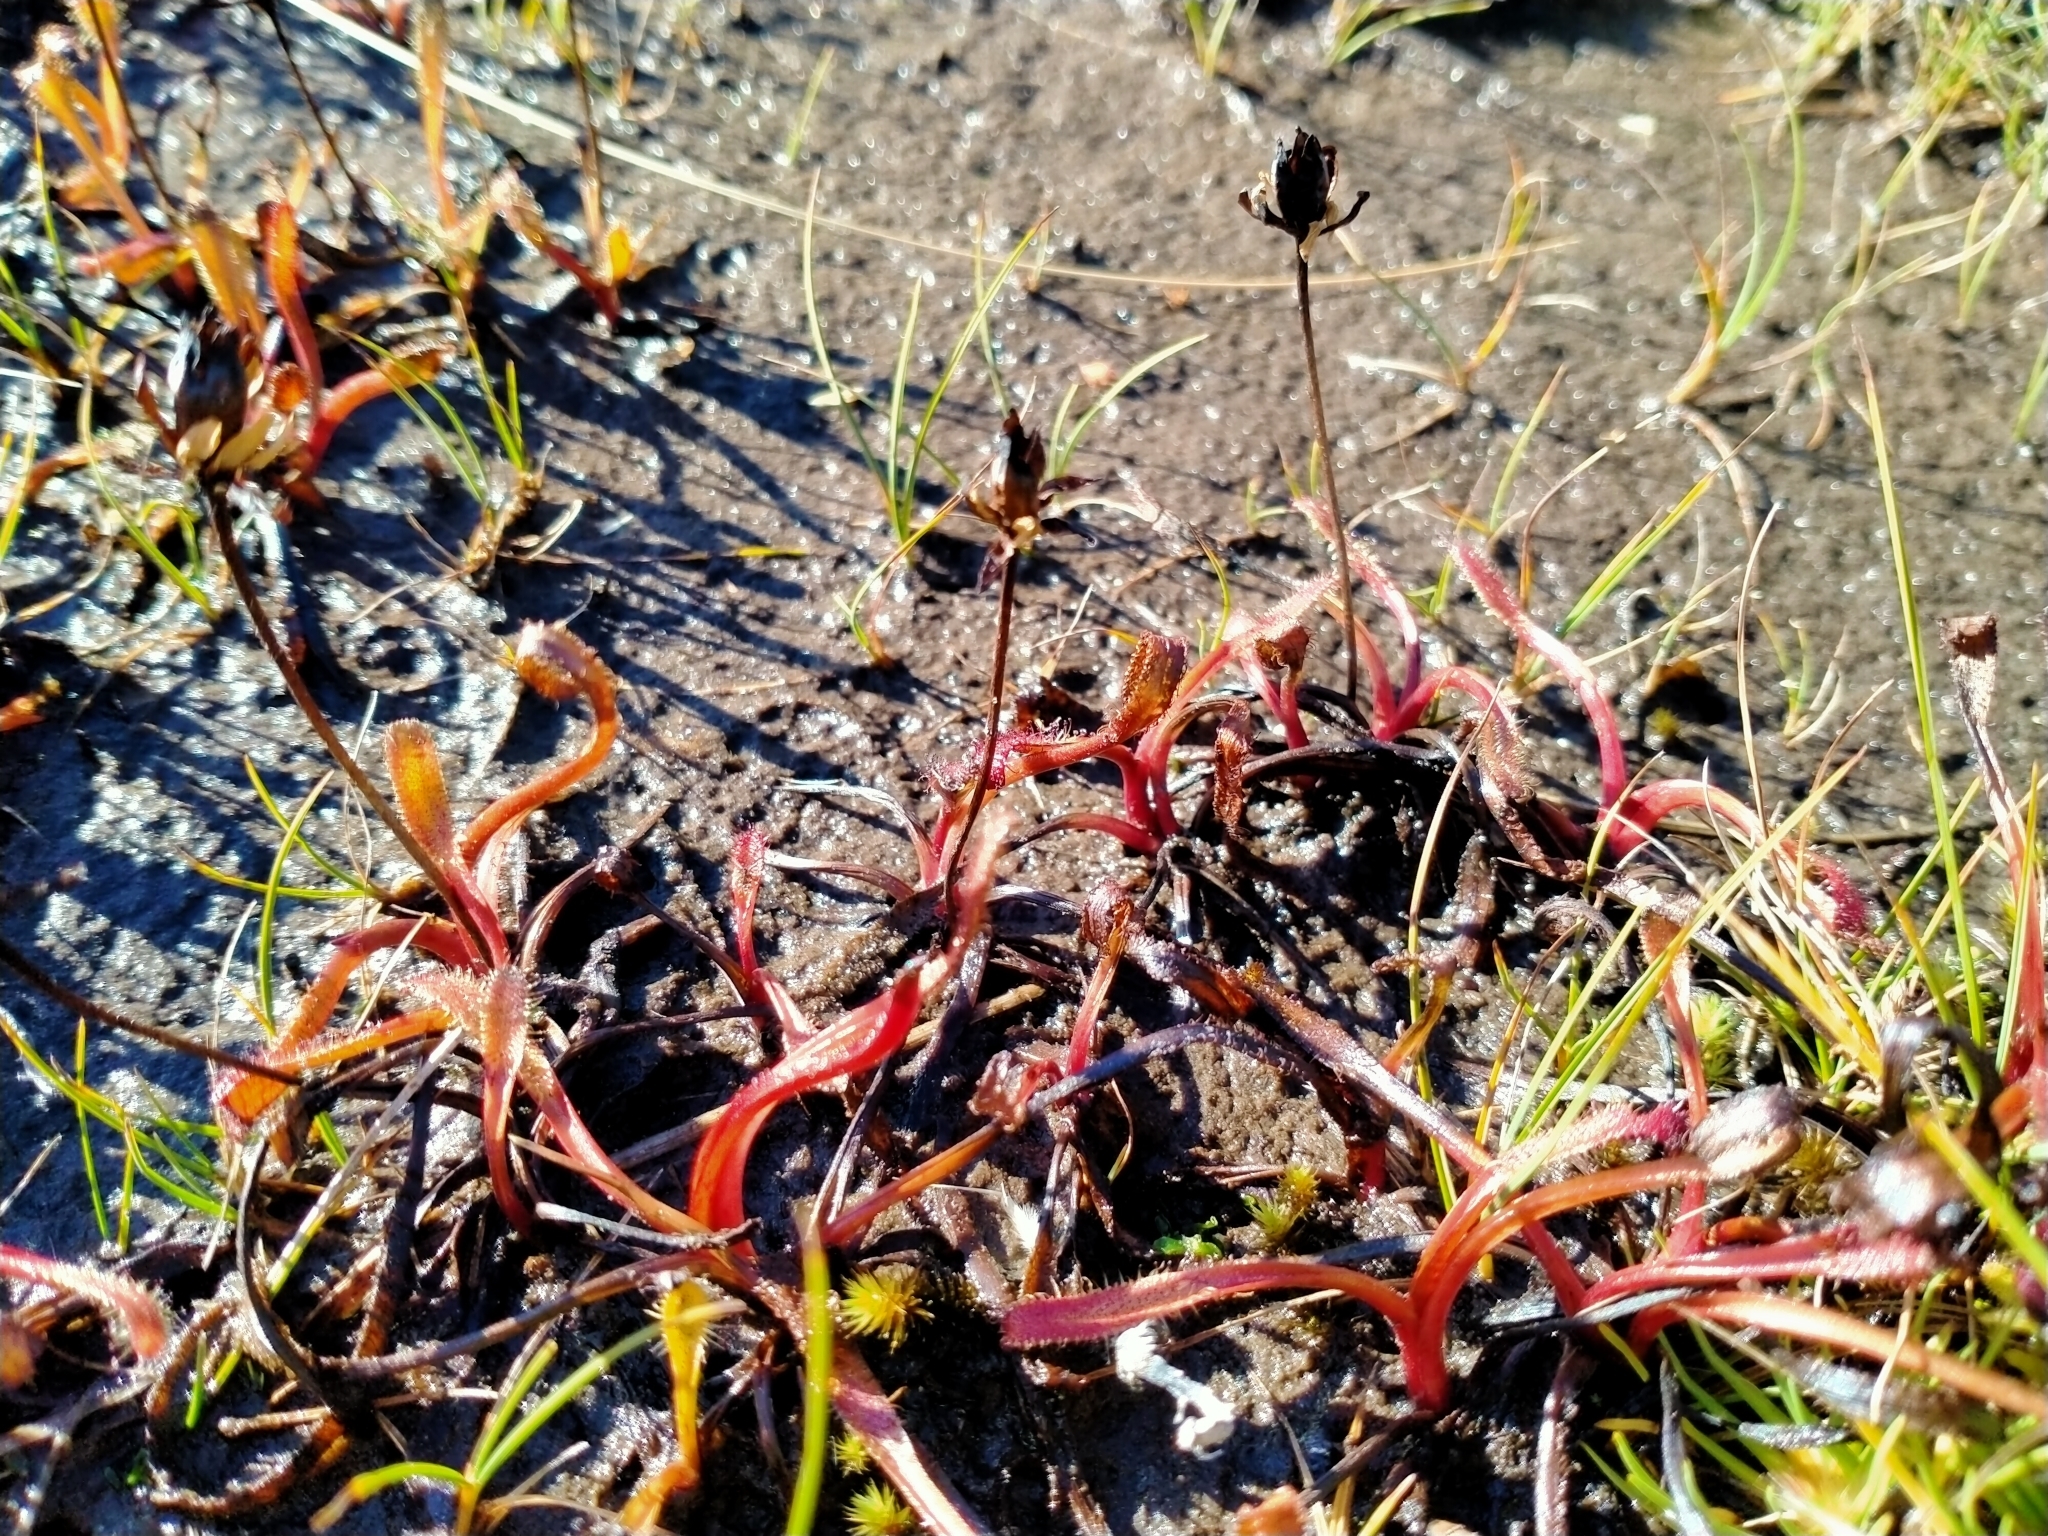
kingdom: Plantae
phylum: Tracheophyta
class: Magnoliopsida
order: Caryophyllales
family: Droseraceae
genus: Drosera
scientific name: Drosera arcturi
